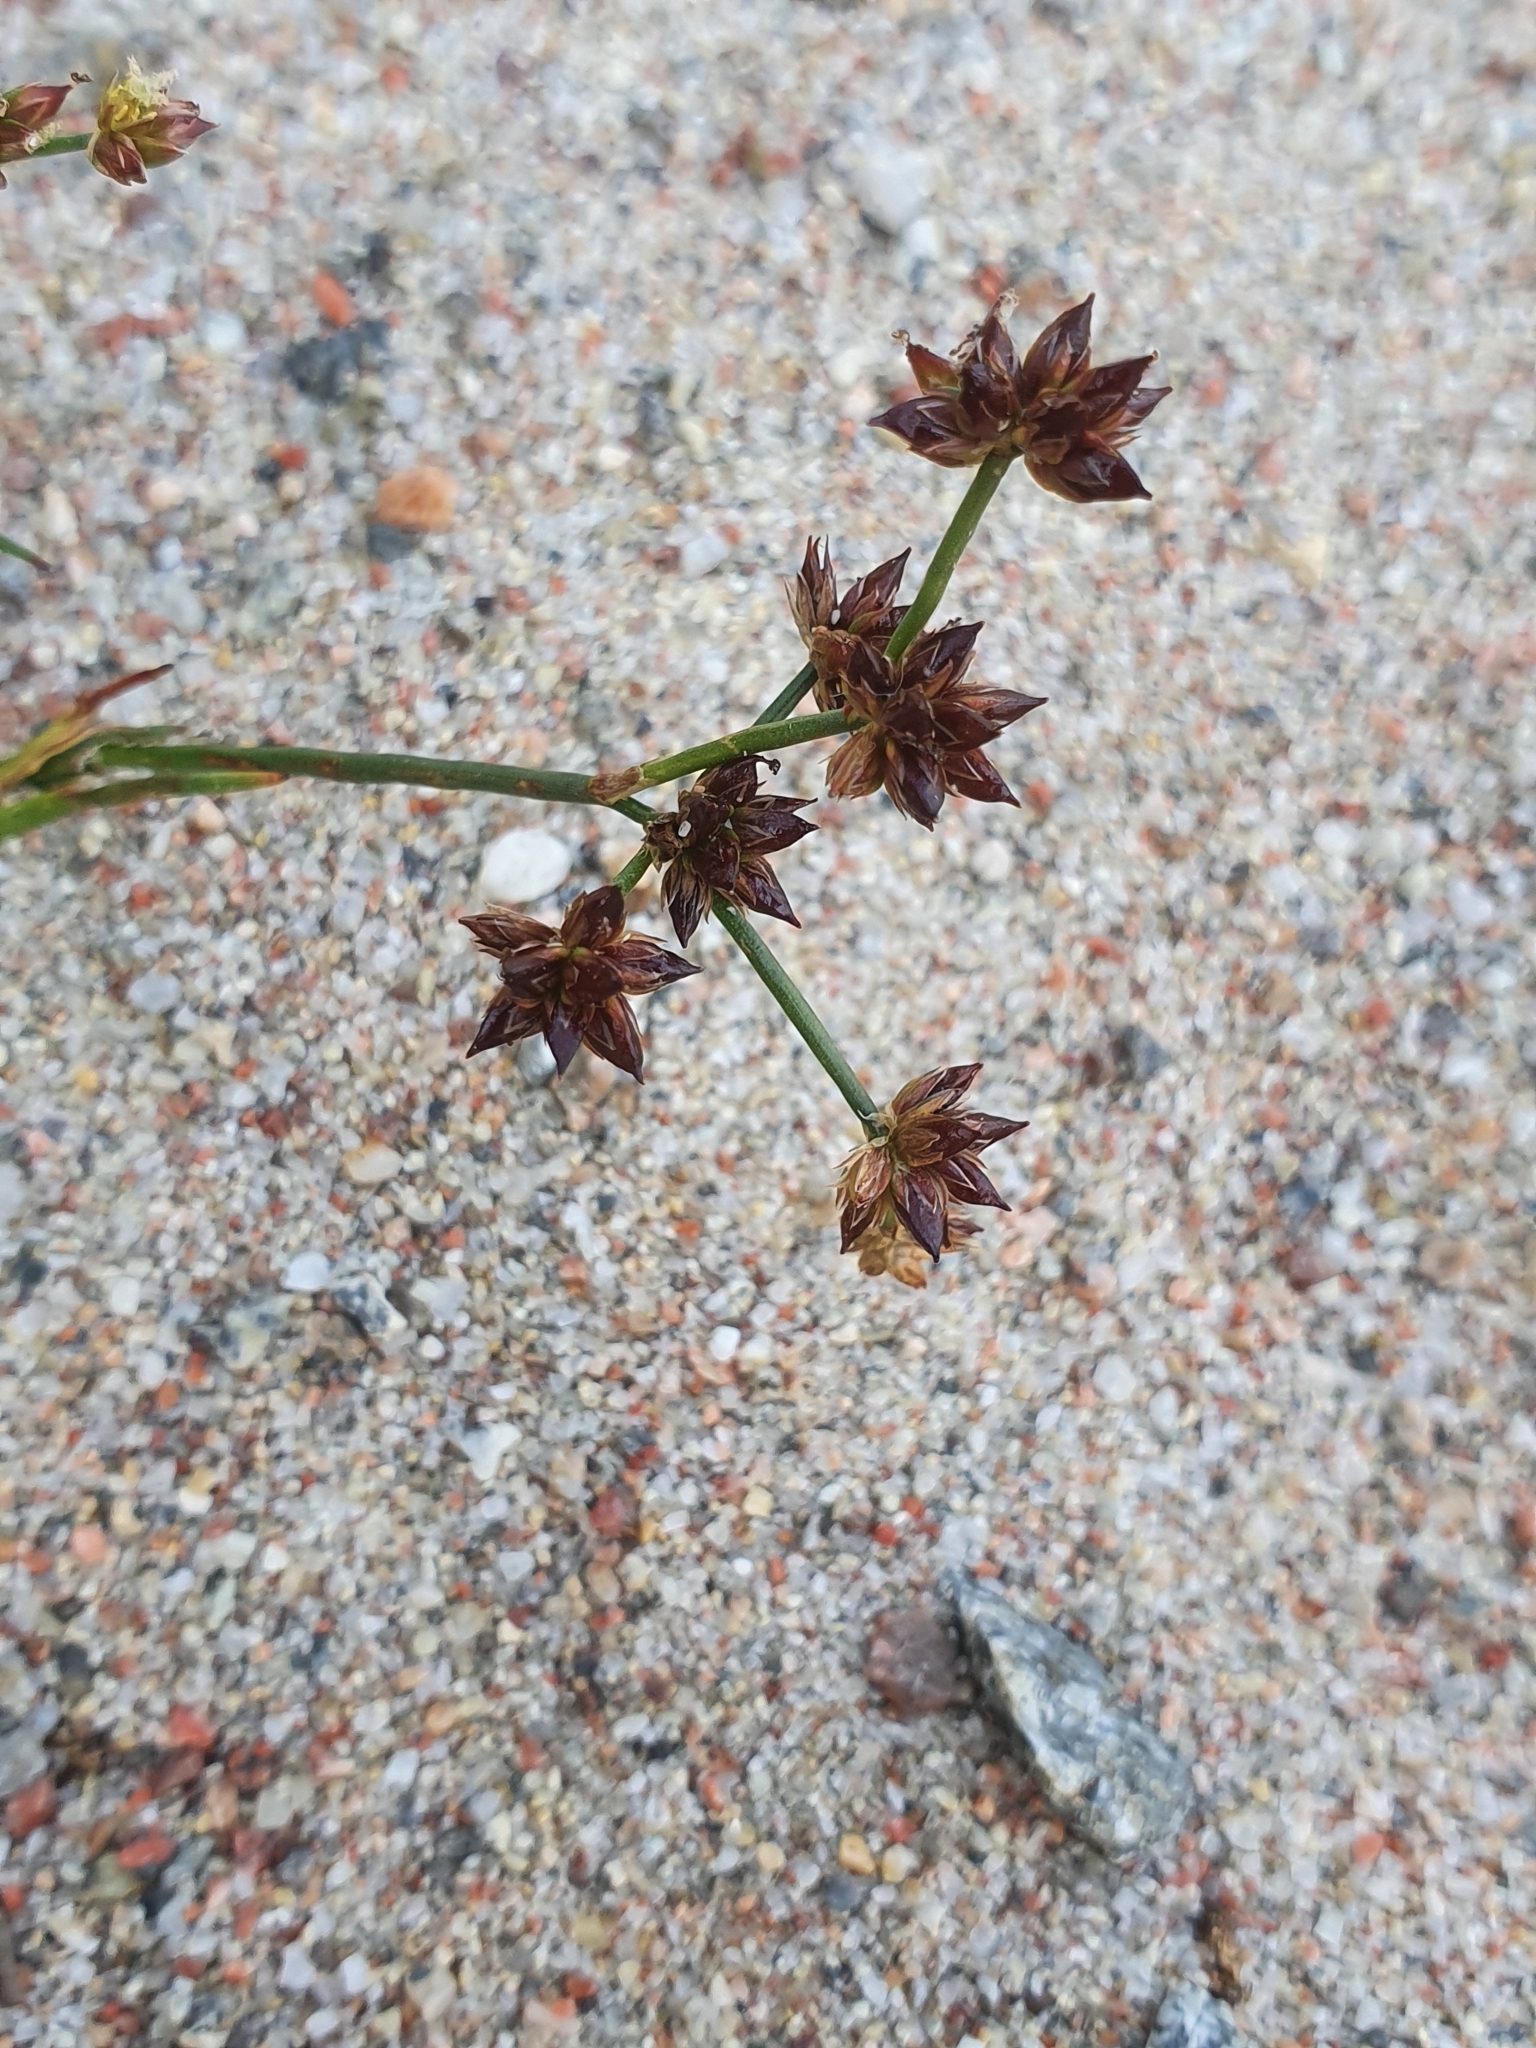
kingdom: Plantae
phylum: Tracheophyta
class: Liliopsida
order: Poales
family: Juncaceae
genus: Juncus
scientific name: Juncus articulatus
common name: Jointed rush
